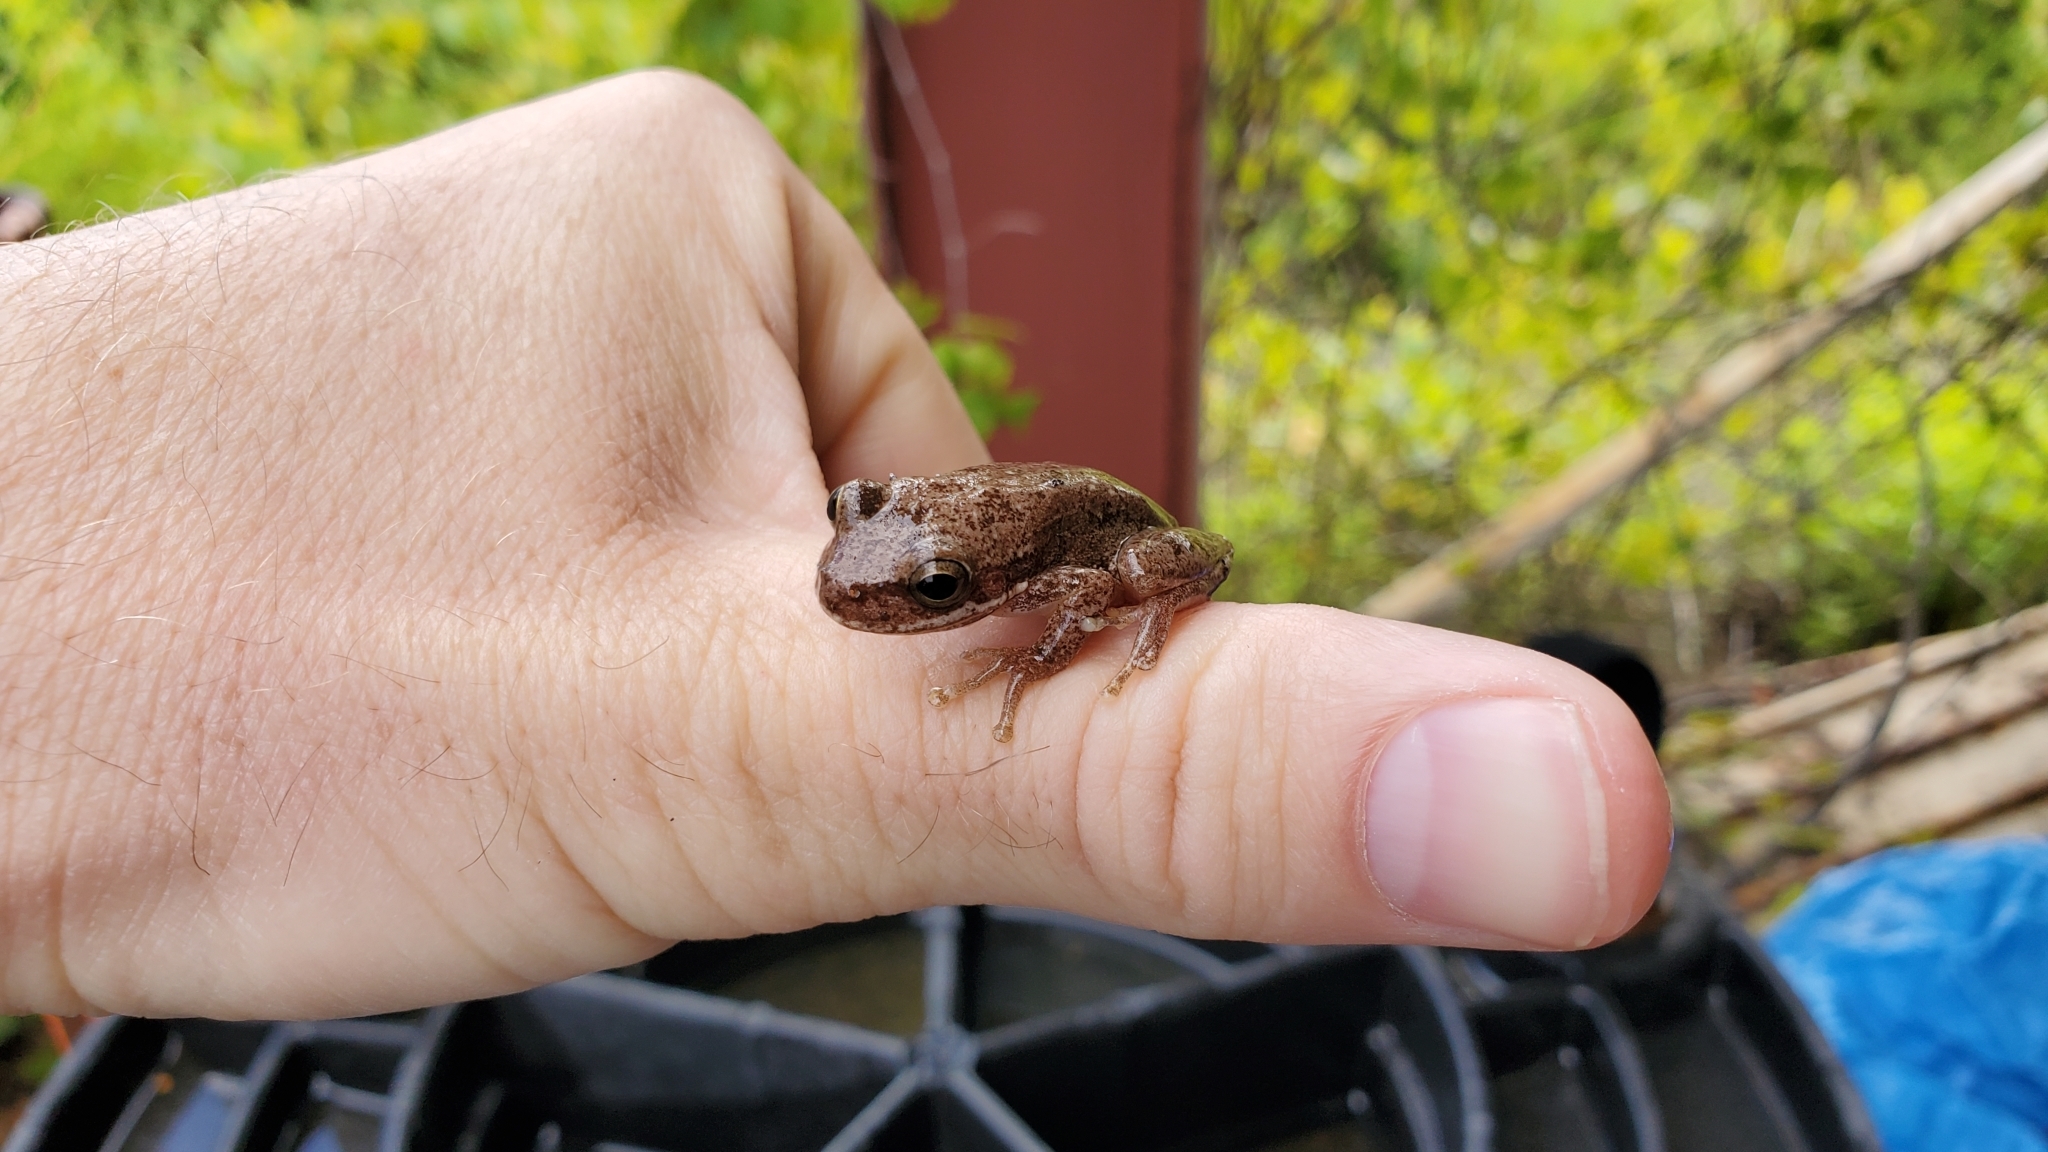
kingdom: Animalia
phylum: Chordata
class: Amphibia
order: Anura
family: Hylidae
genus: Dryophytes
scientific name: Dryophytes squirellus
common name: Squirrel treefrog
